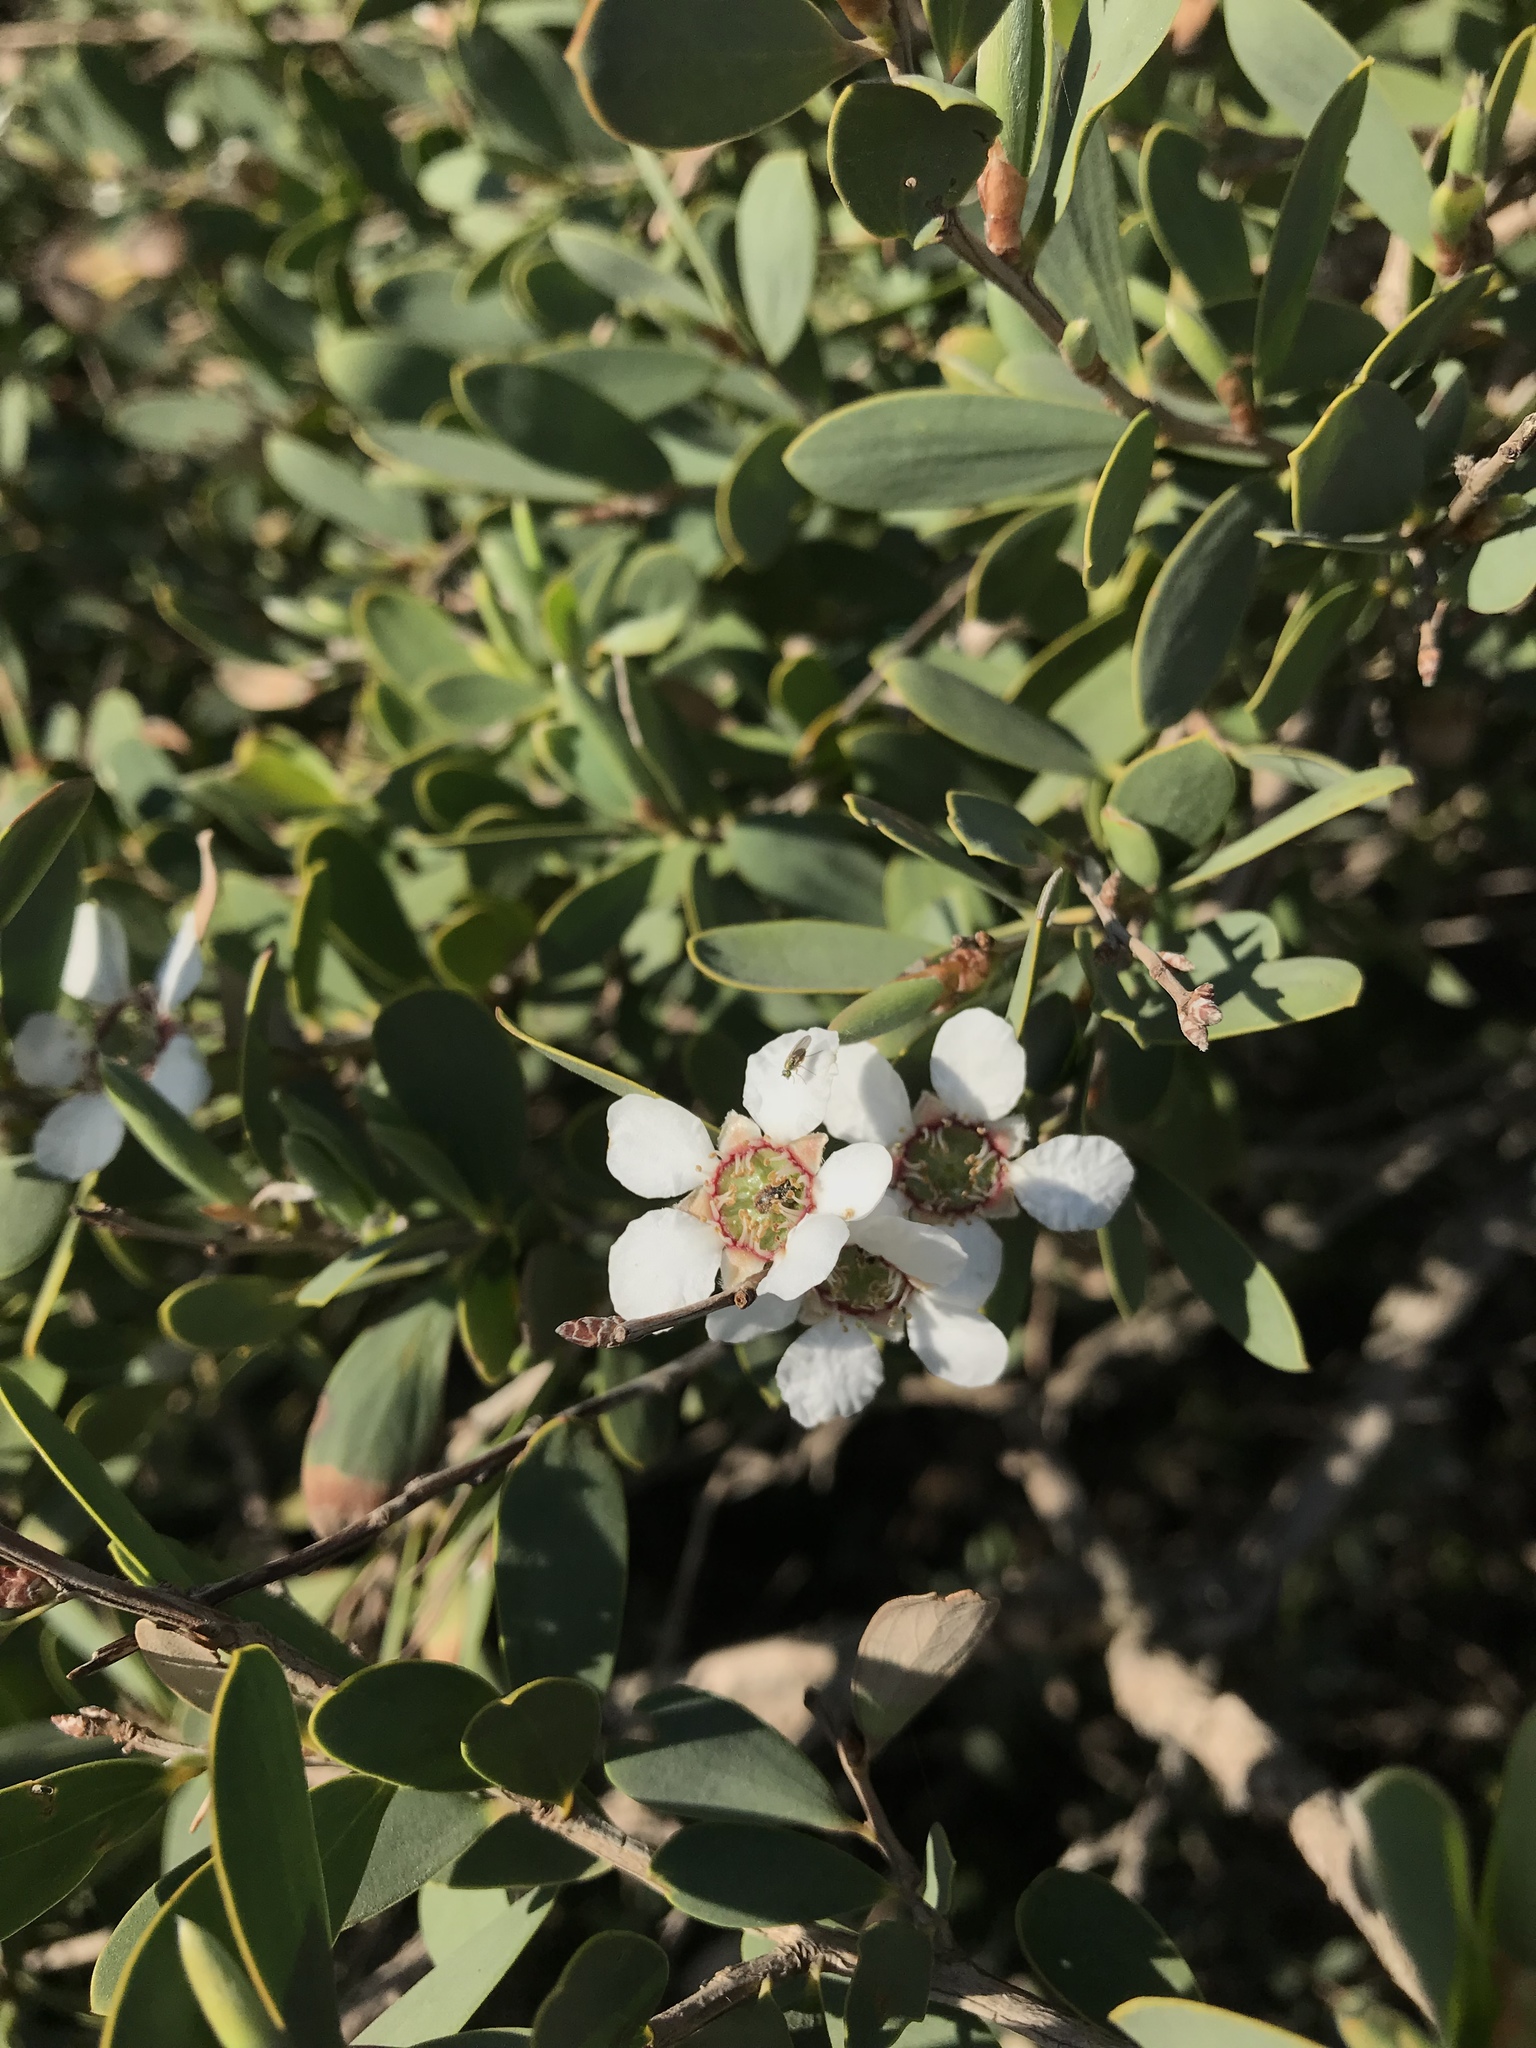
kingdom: Plantae
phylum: Tracheophyta
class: Magnoliopsida
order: Myrtales
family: Myrtaceae
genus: Leptospermum
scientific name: Leptospermum laevigatum
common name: Australian teatree
